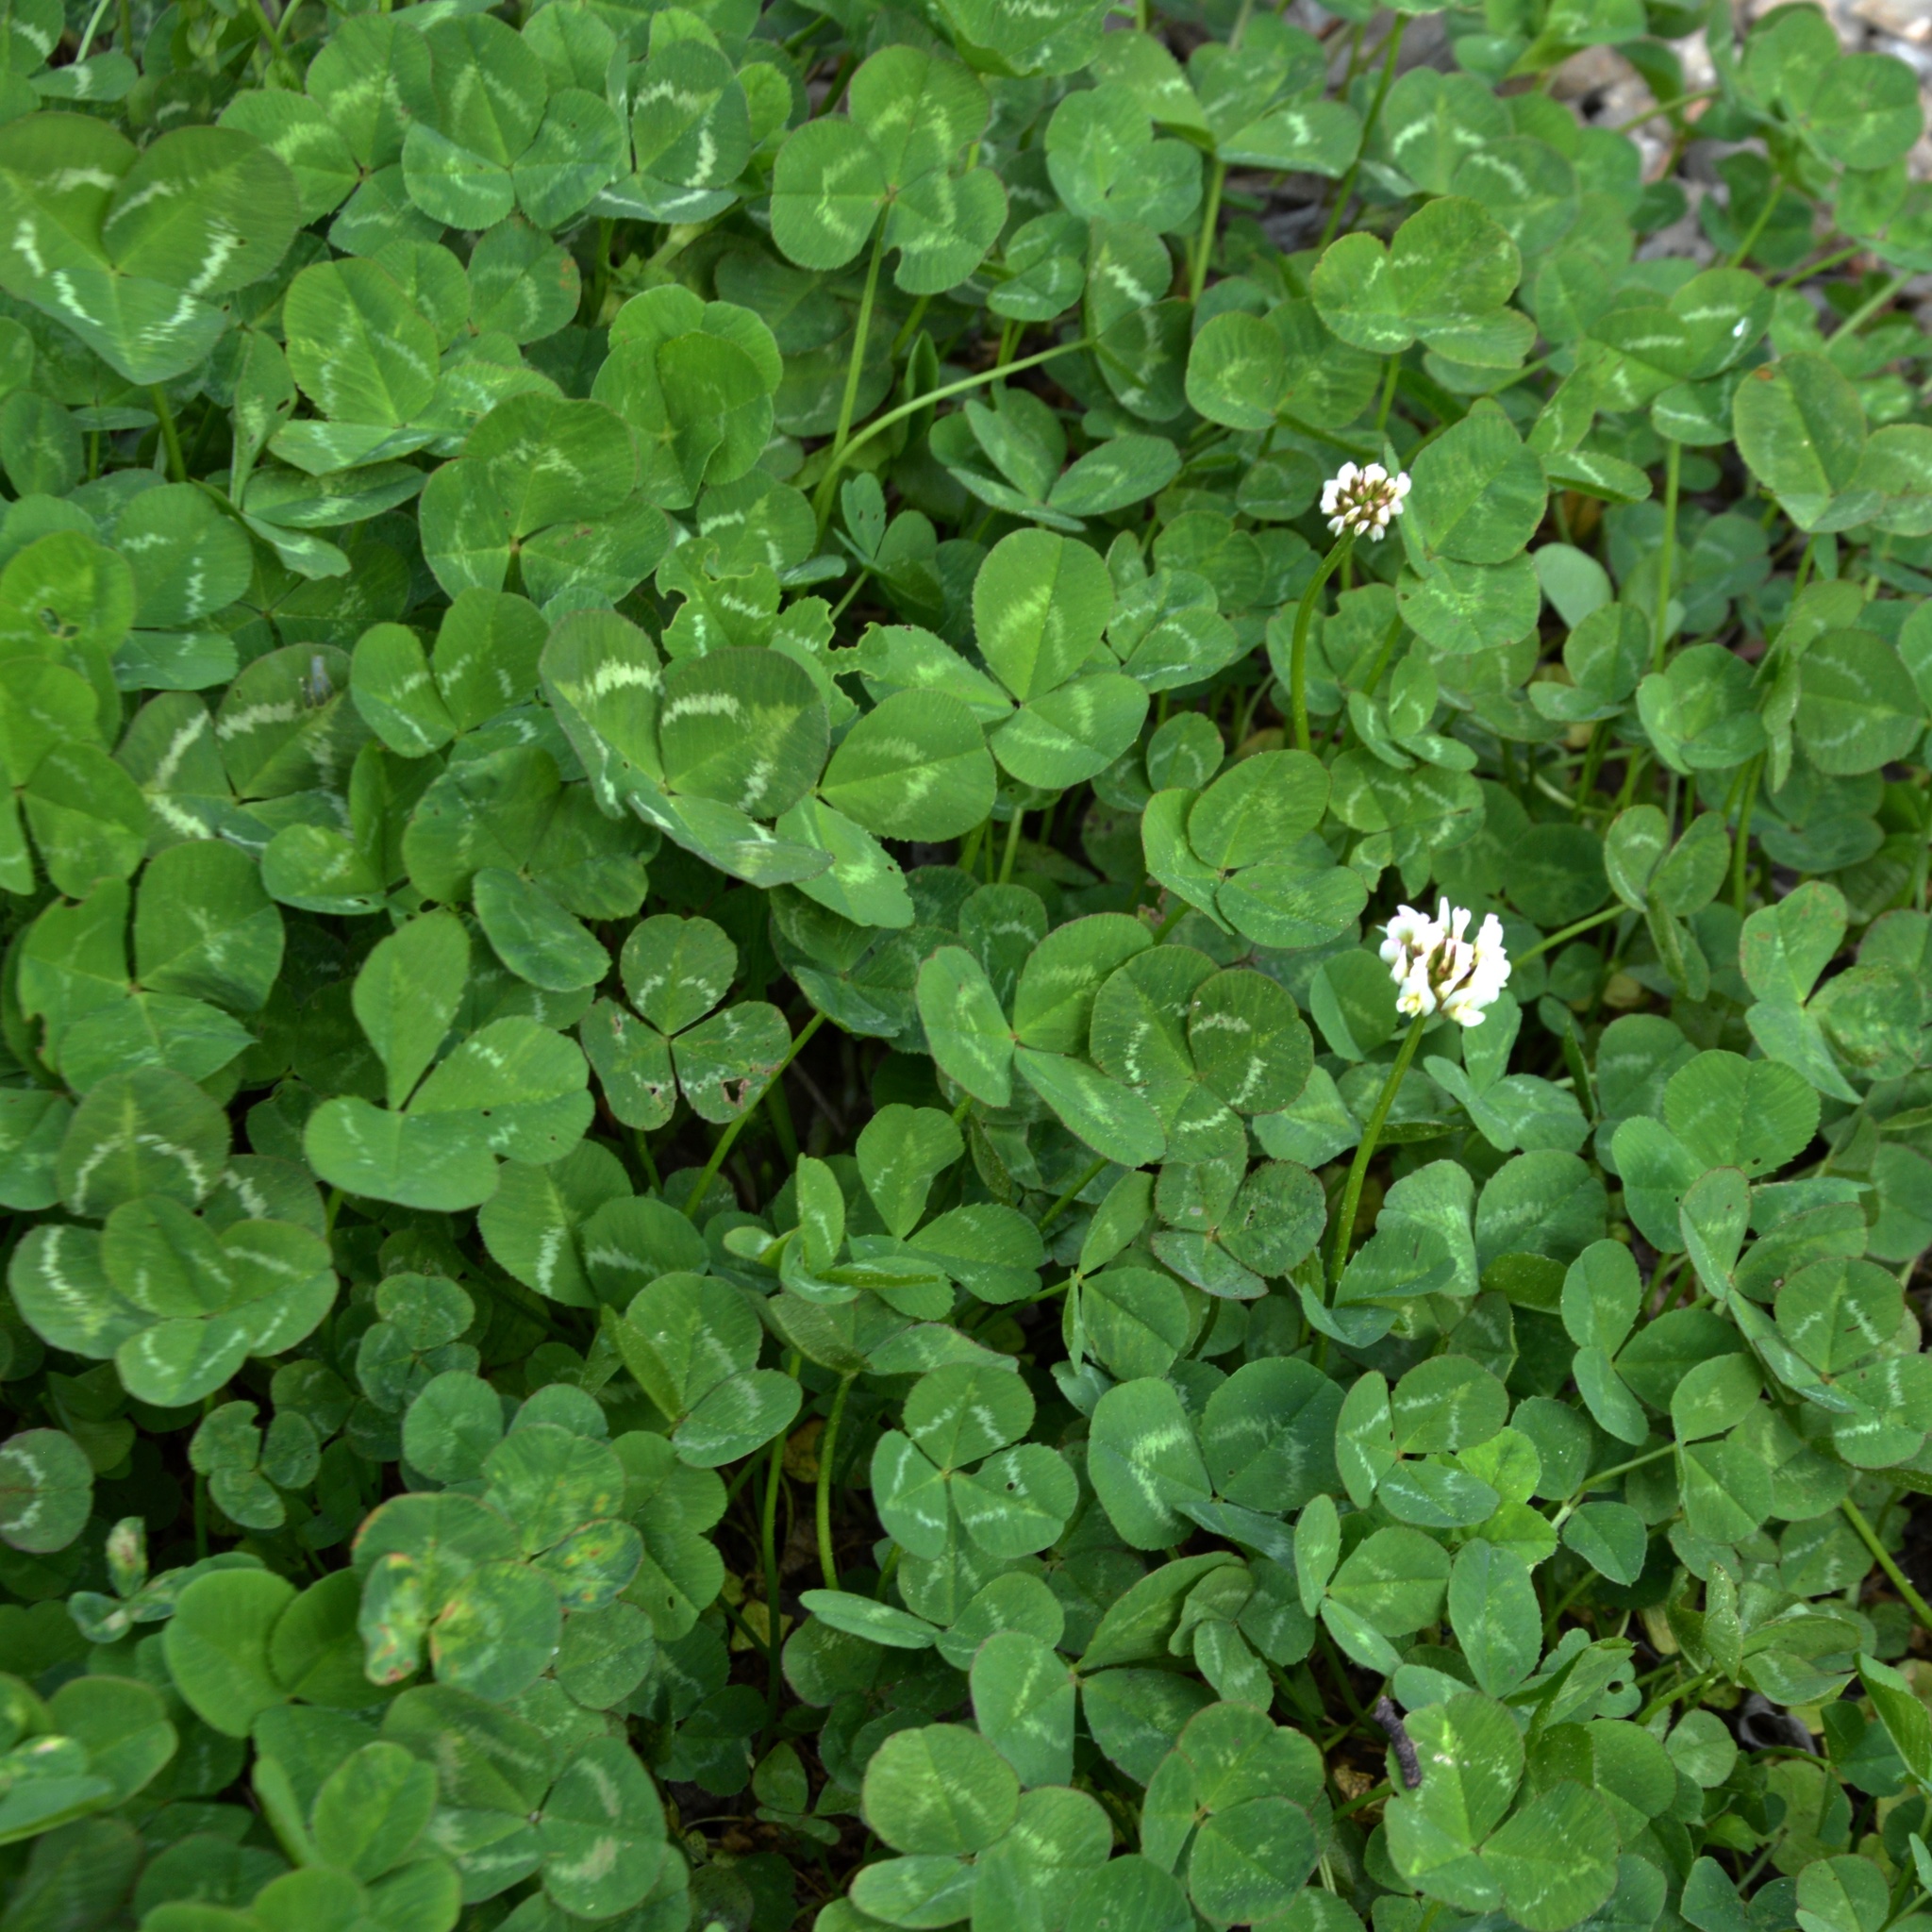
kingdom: Plantae
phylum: Tracheophyta
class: Magnoliopsida
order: Fabales
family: Fabaceae
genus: Trifolium
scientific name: Trifolium repens
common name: White clover
